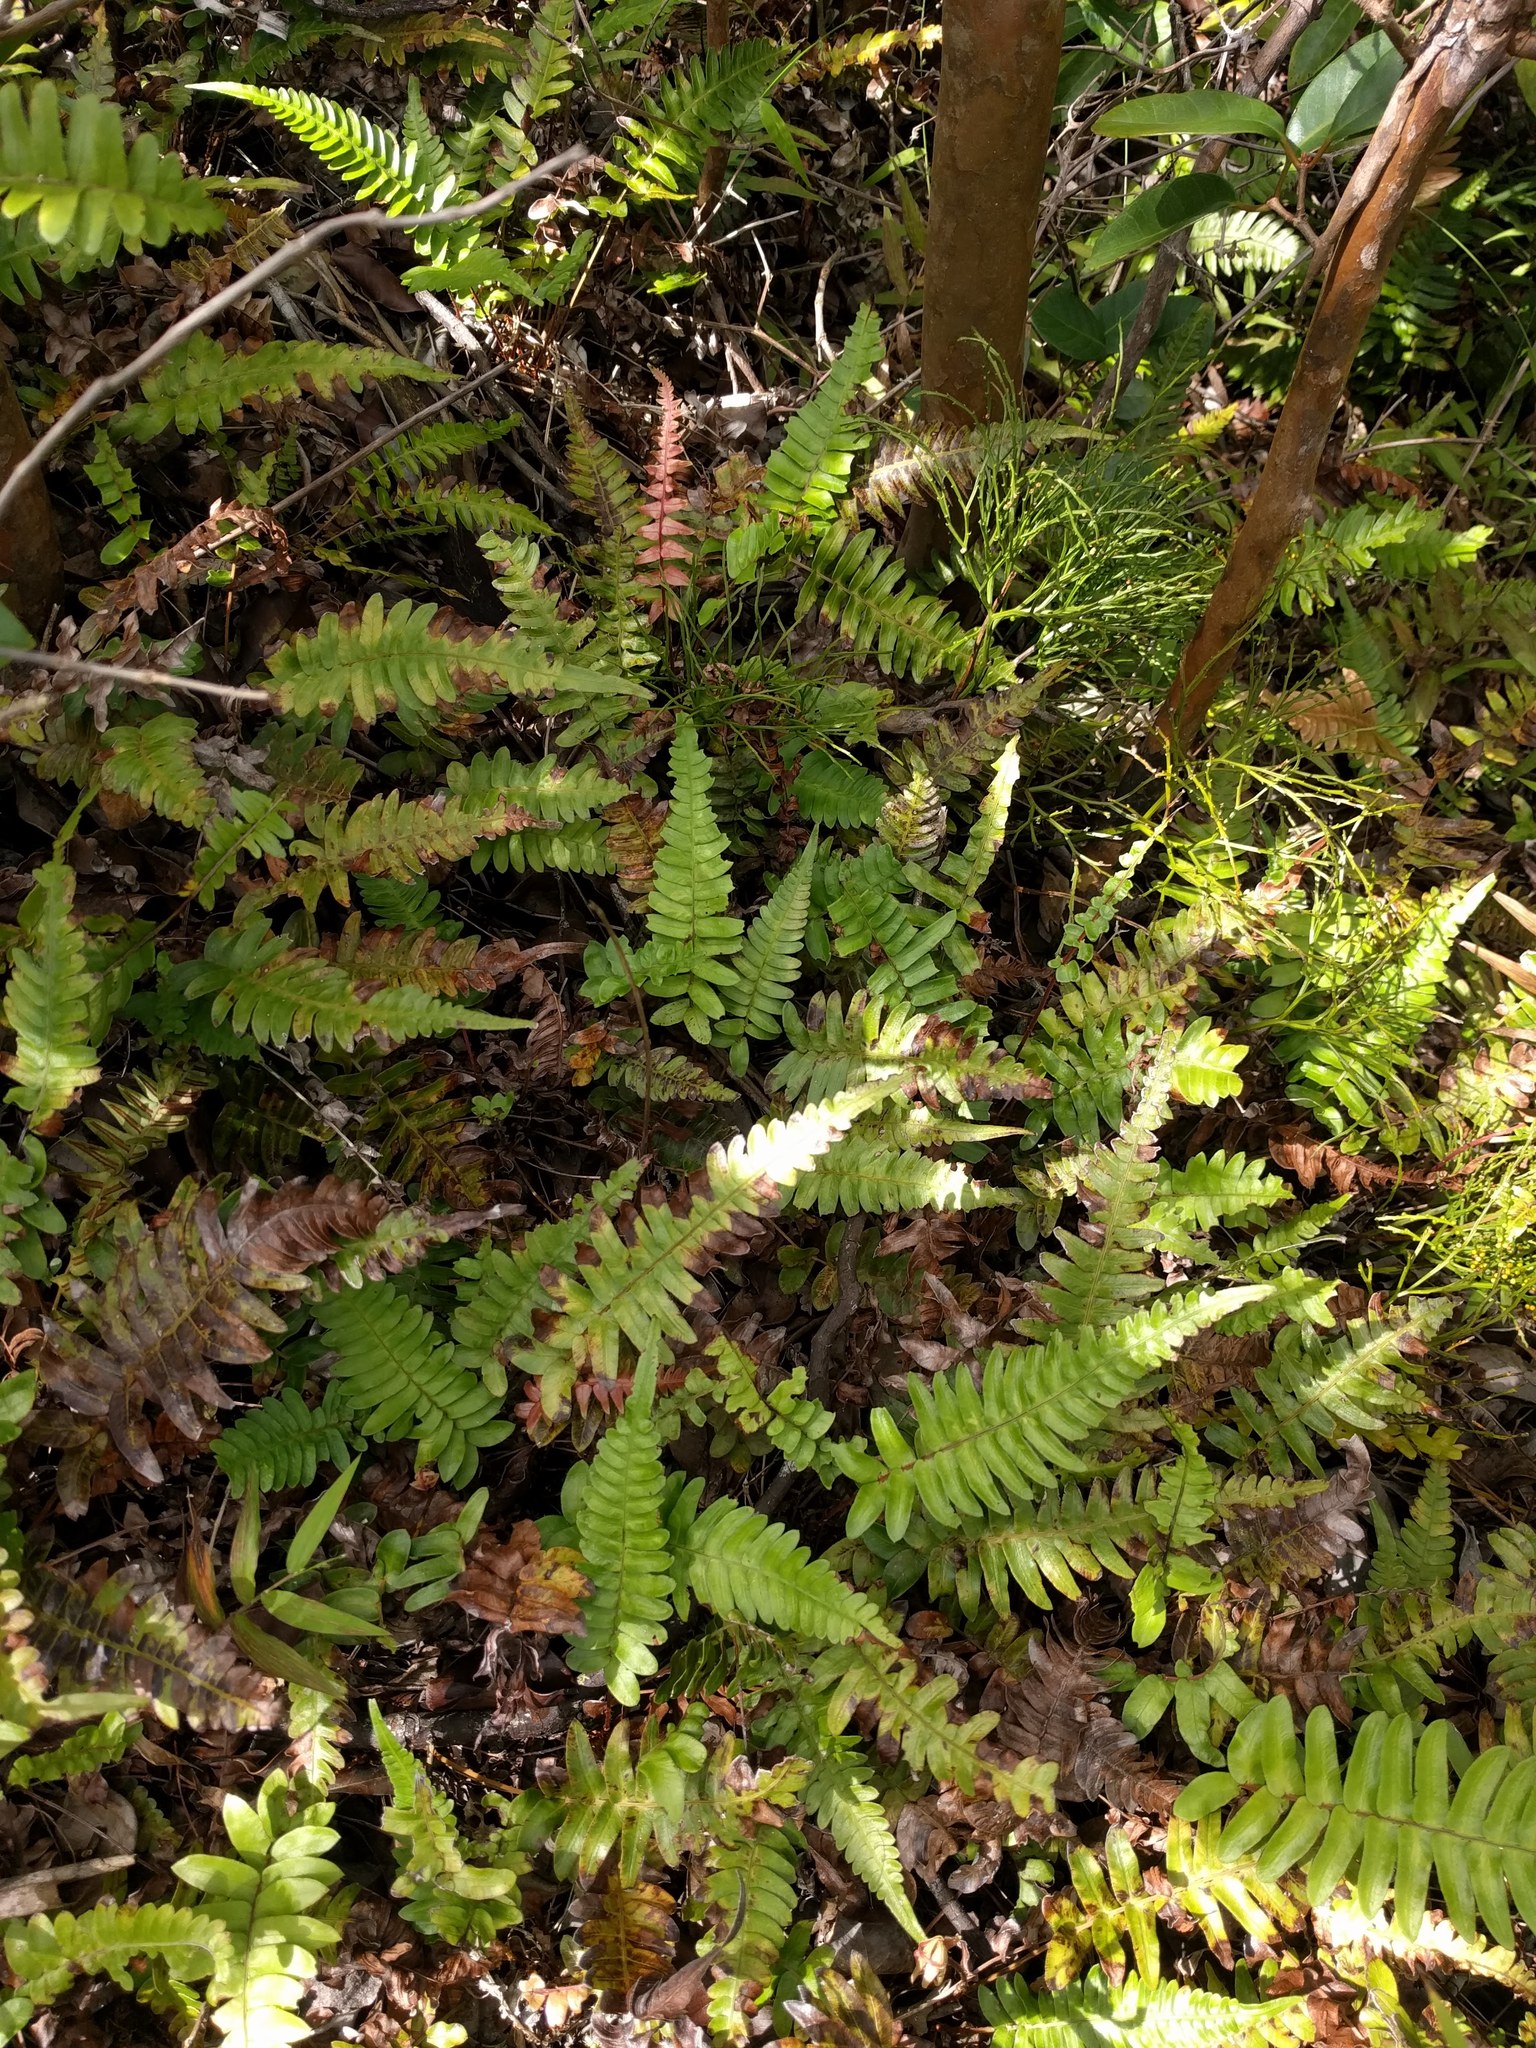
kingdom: Plantae
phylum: Tracheophyta
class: Polypodiopsida
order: Polypodiales
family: Blechnaceae
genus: Blechnum
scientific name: Blechnum appendiculatum
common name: Palm fern
